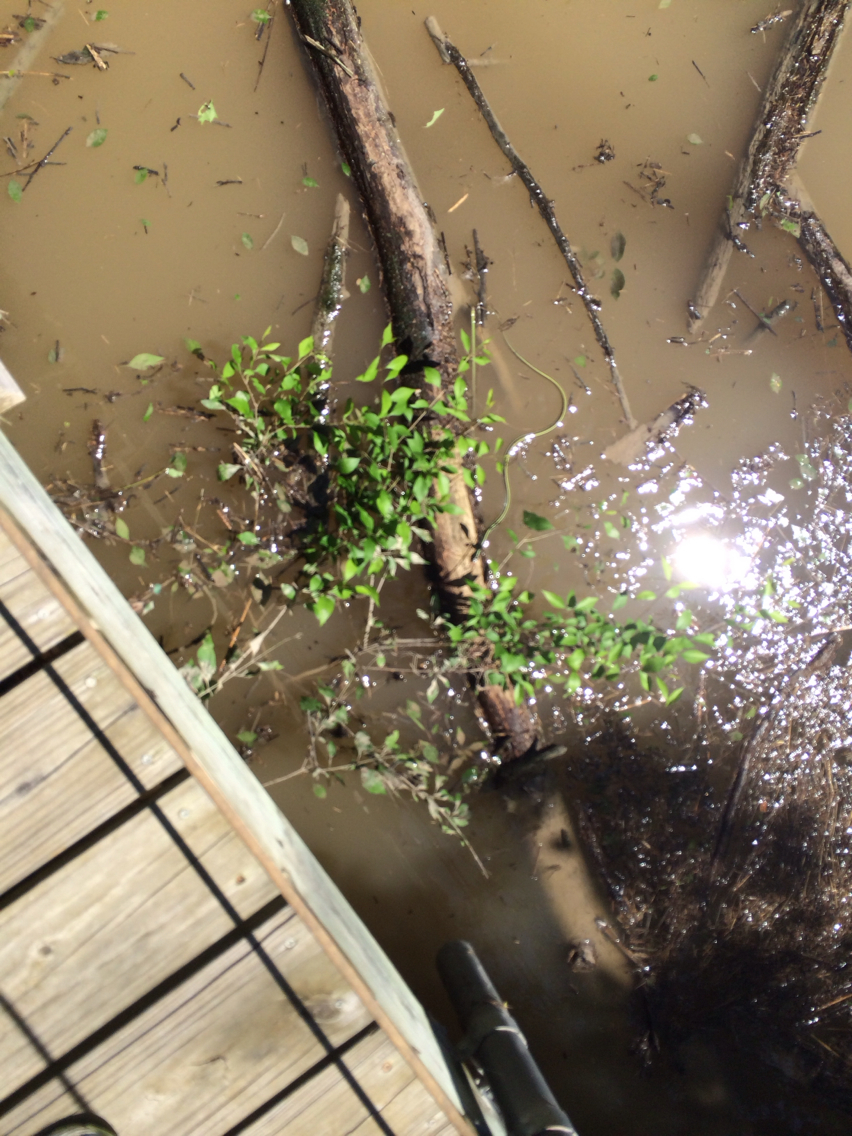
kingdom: Animalia
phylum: Chordata
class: Squamata
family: Colubridae
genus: Thamnophis
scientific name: Thamnophis proximus
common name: Western ribbon snake
